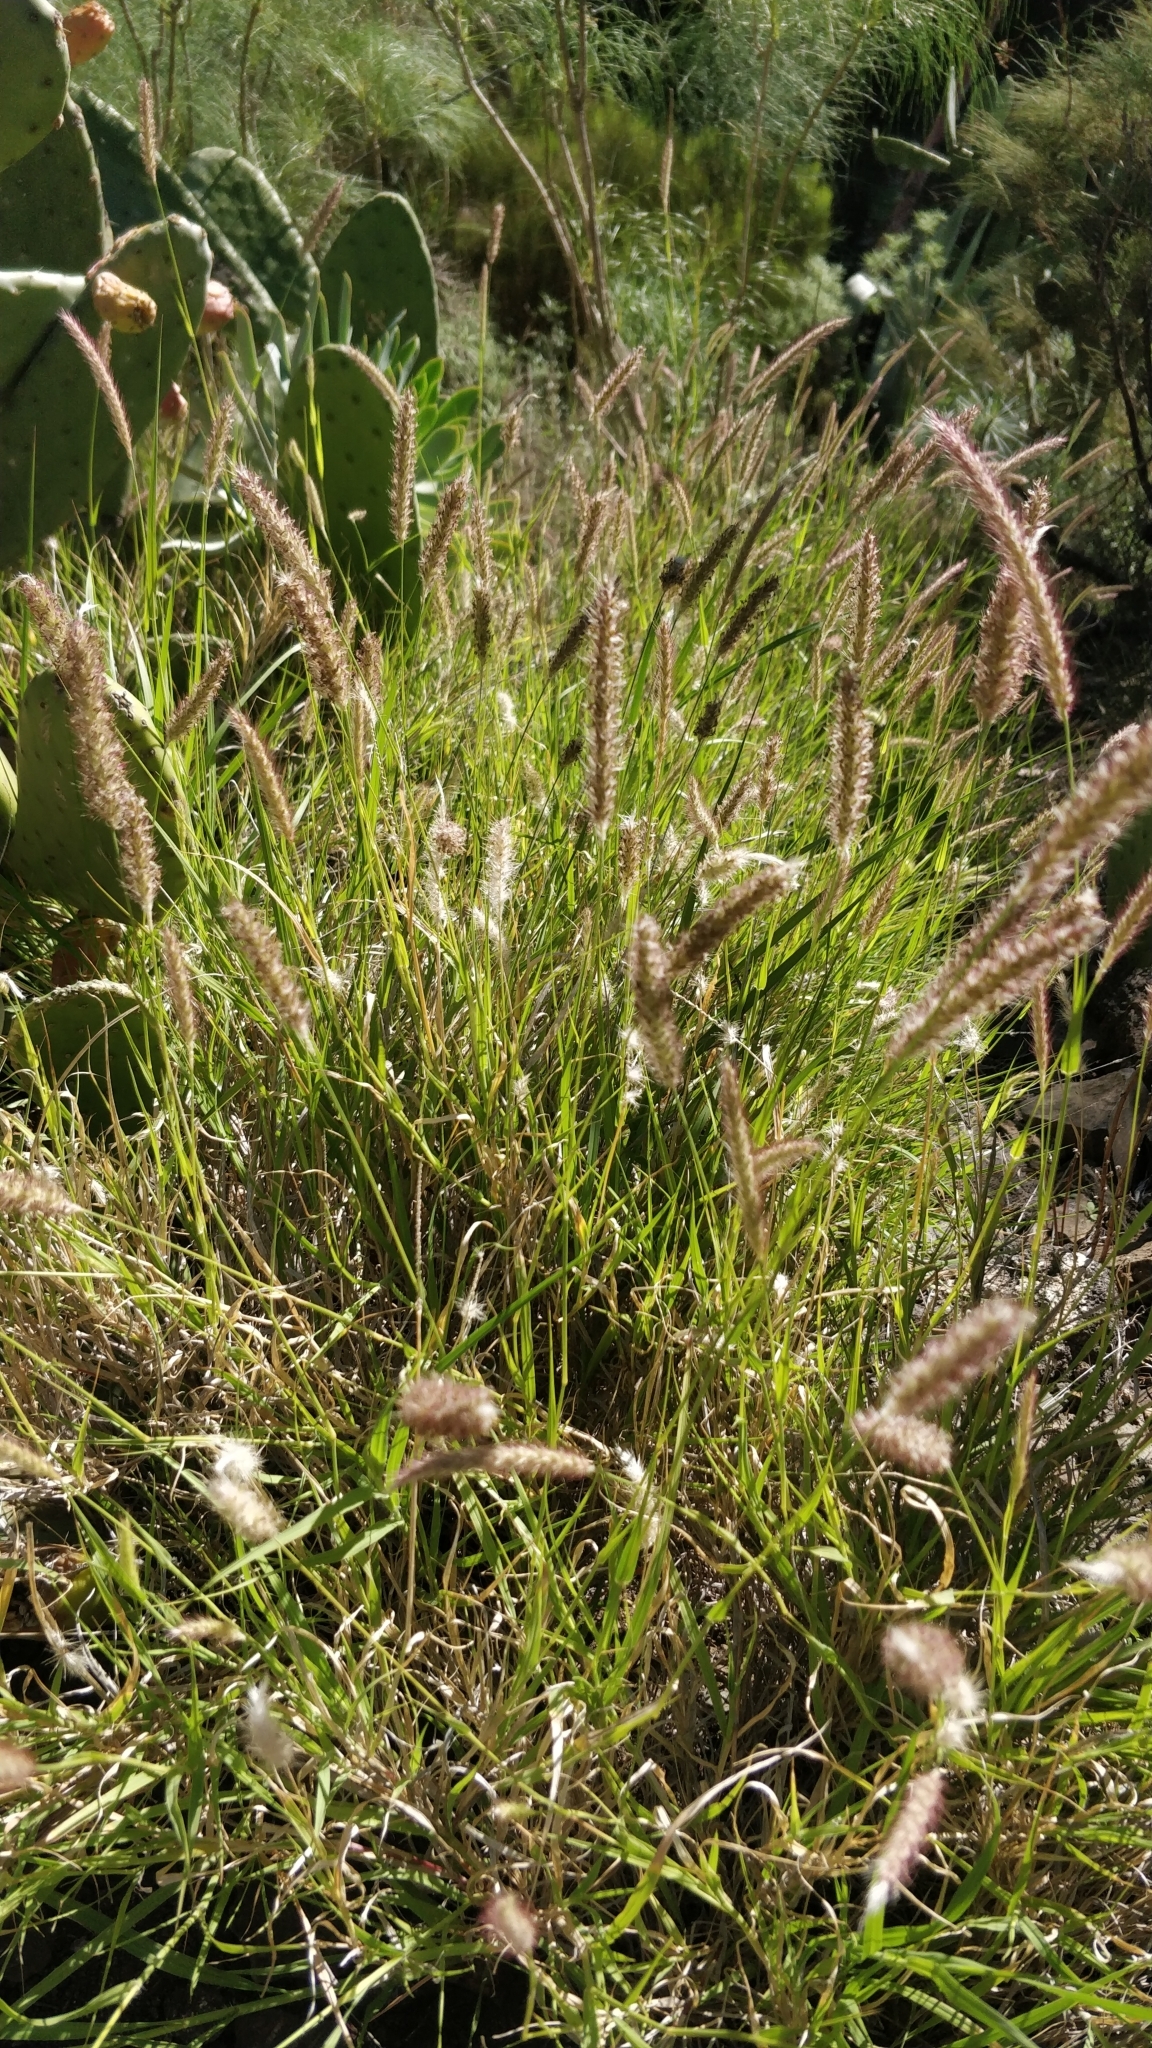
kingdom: Plantae
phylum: Tracheophyta
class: Liliopsida
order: Poales
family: Poaceae
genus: Cenchrus
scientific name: Cenchrus ciliaris
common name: Buffelgrass
